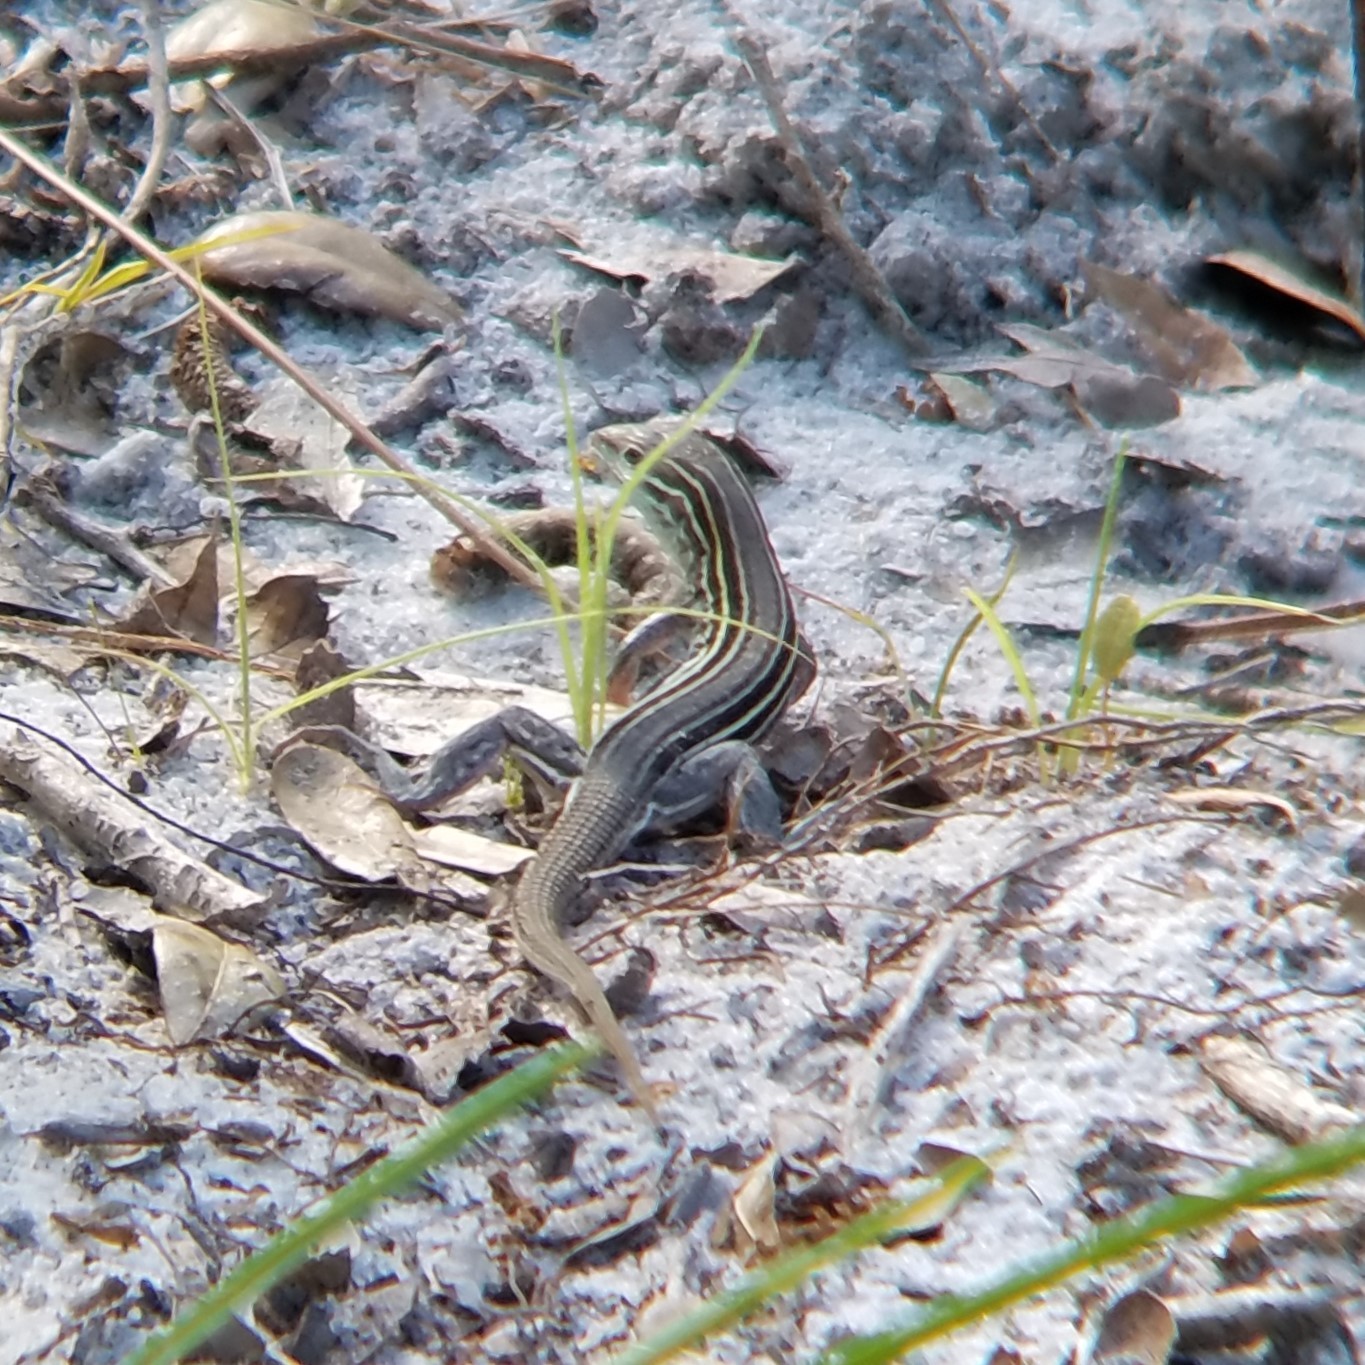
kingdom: Animalia
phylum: Chordata
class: Squamata
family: Teiidae
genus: Aspidoscelis
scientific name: Aspidoscelis sexlineatus
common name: Six-lined racerunner
